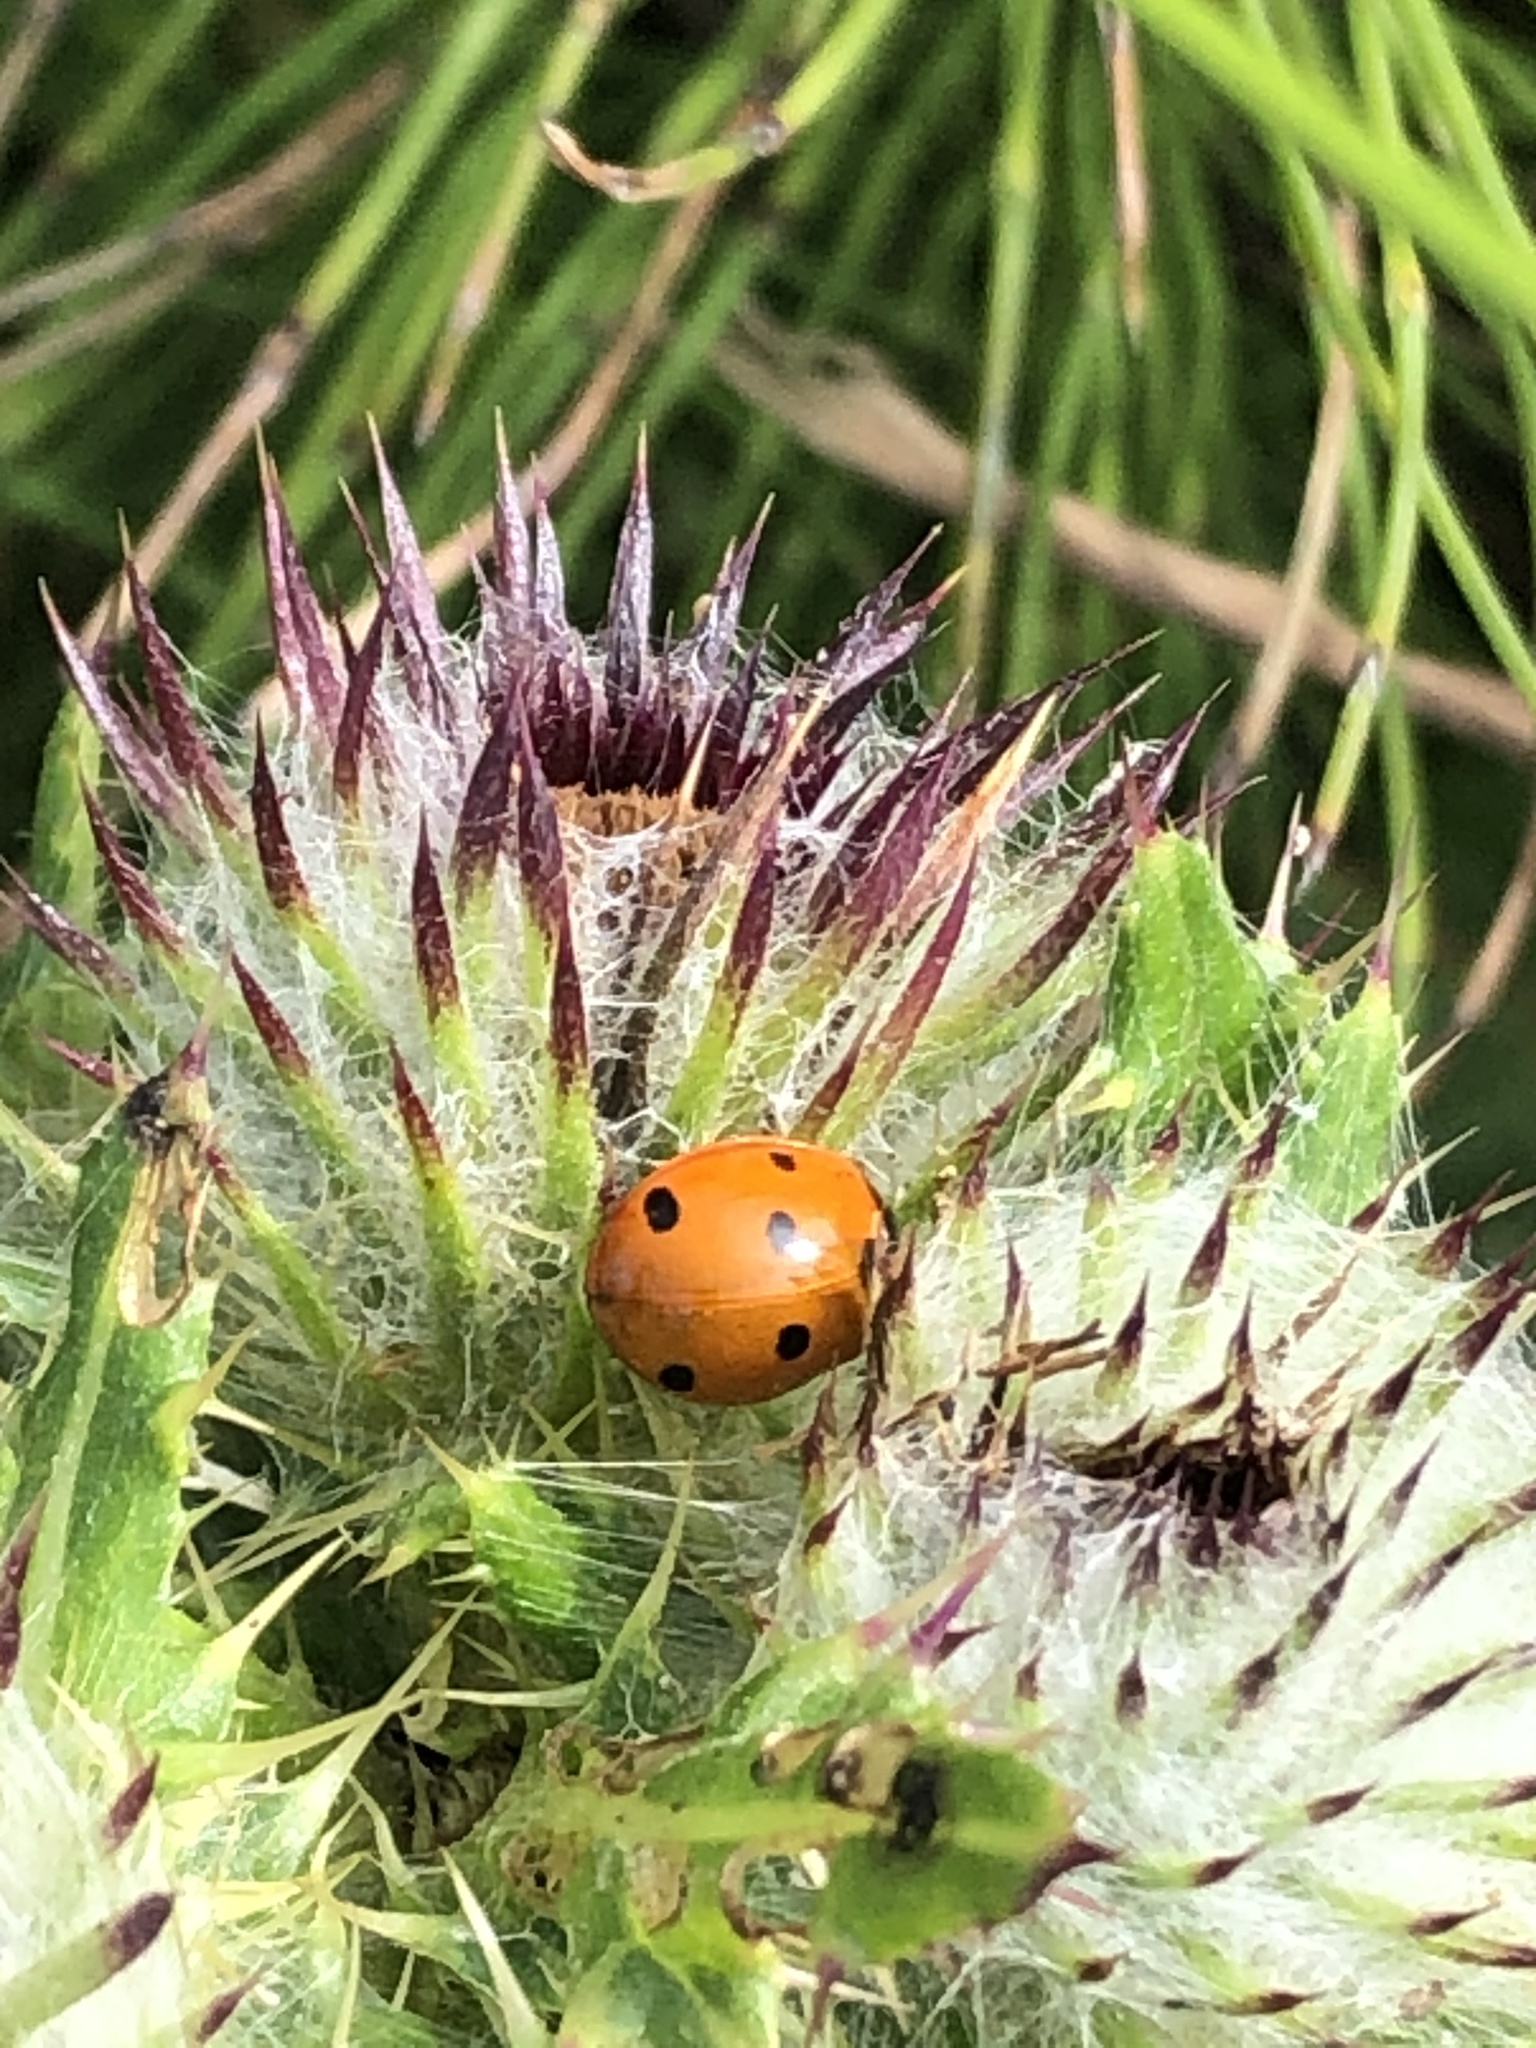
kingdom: Animalia
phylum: Arthropoda
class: Insecta
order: Coleoptera
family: Coccinellidae
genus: Coccinella
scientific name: Coccinella septempunctata
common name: Sevenspotted lady beetle
